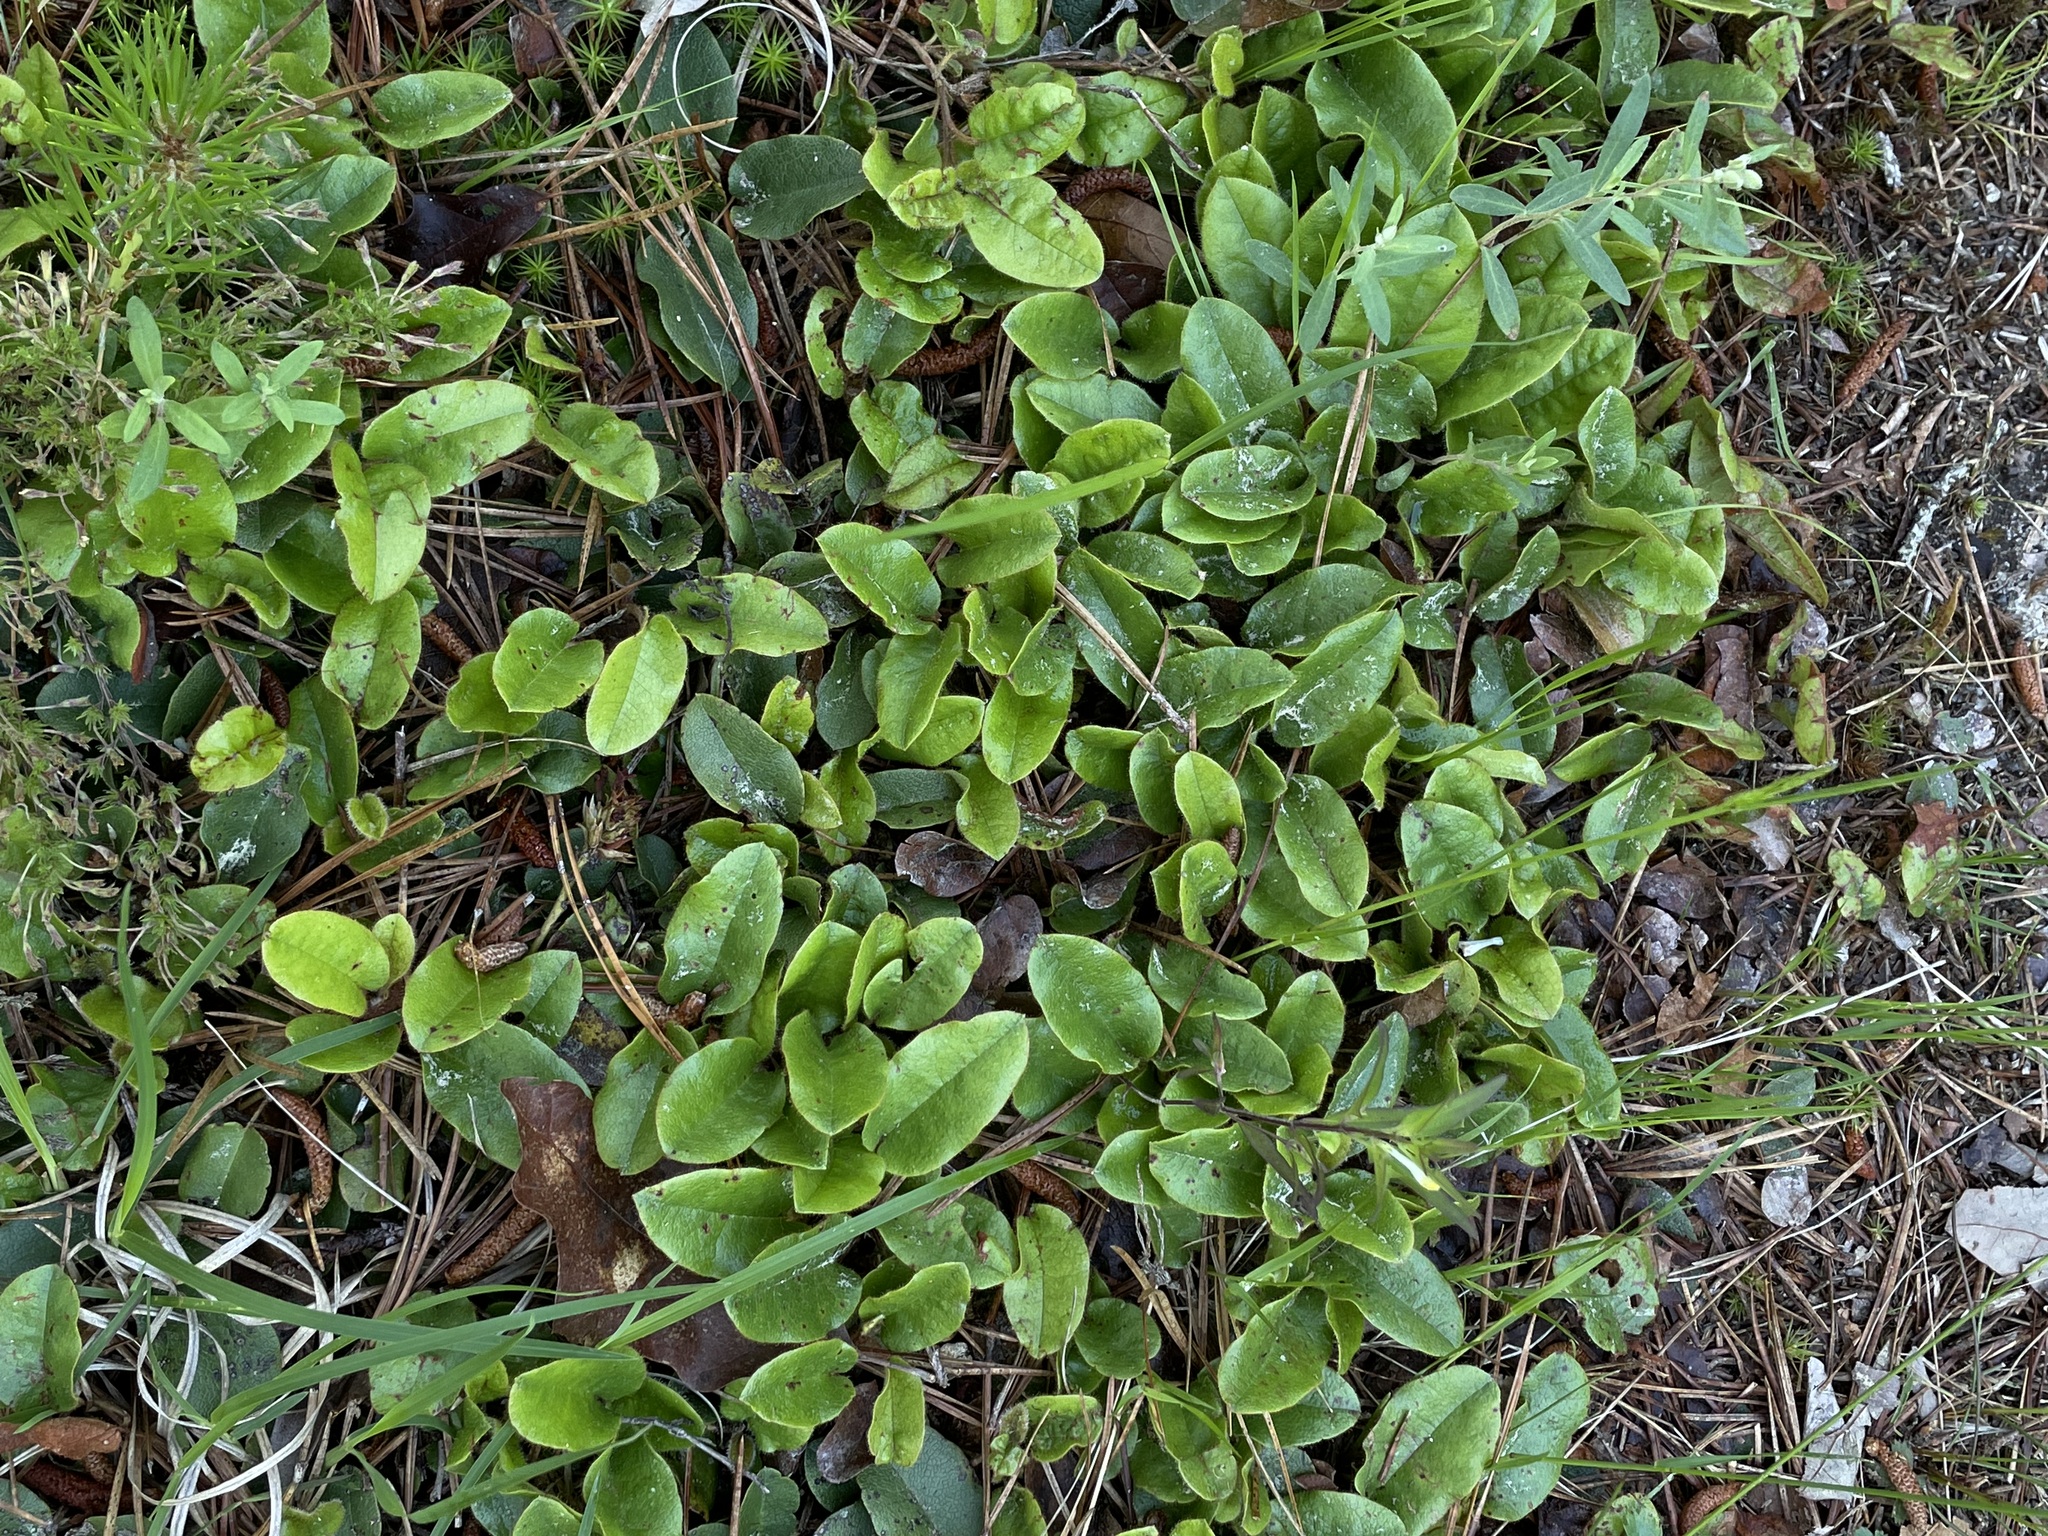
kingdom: Plantae
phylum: Tracheophyta
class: Magnoliopsida
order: Ericales
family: Ericaceae
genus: Epigaea
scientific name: Epigaea repens
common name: Gravelroot
